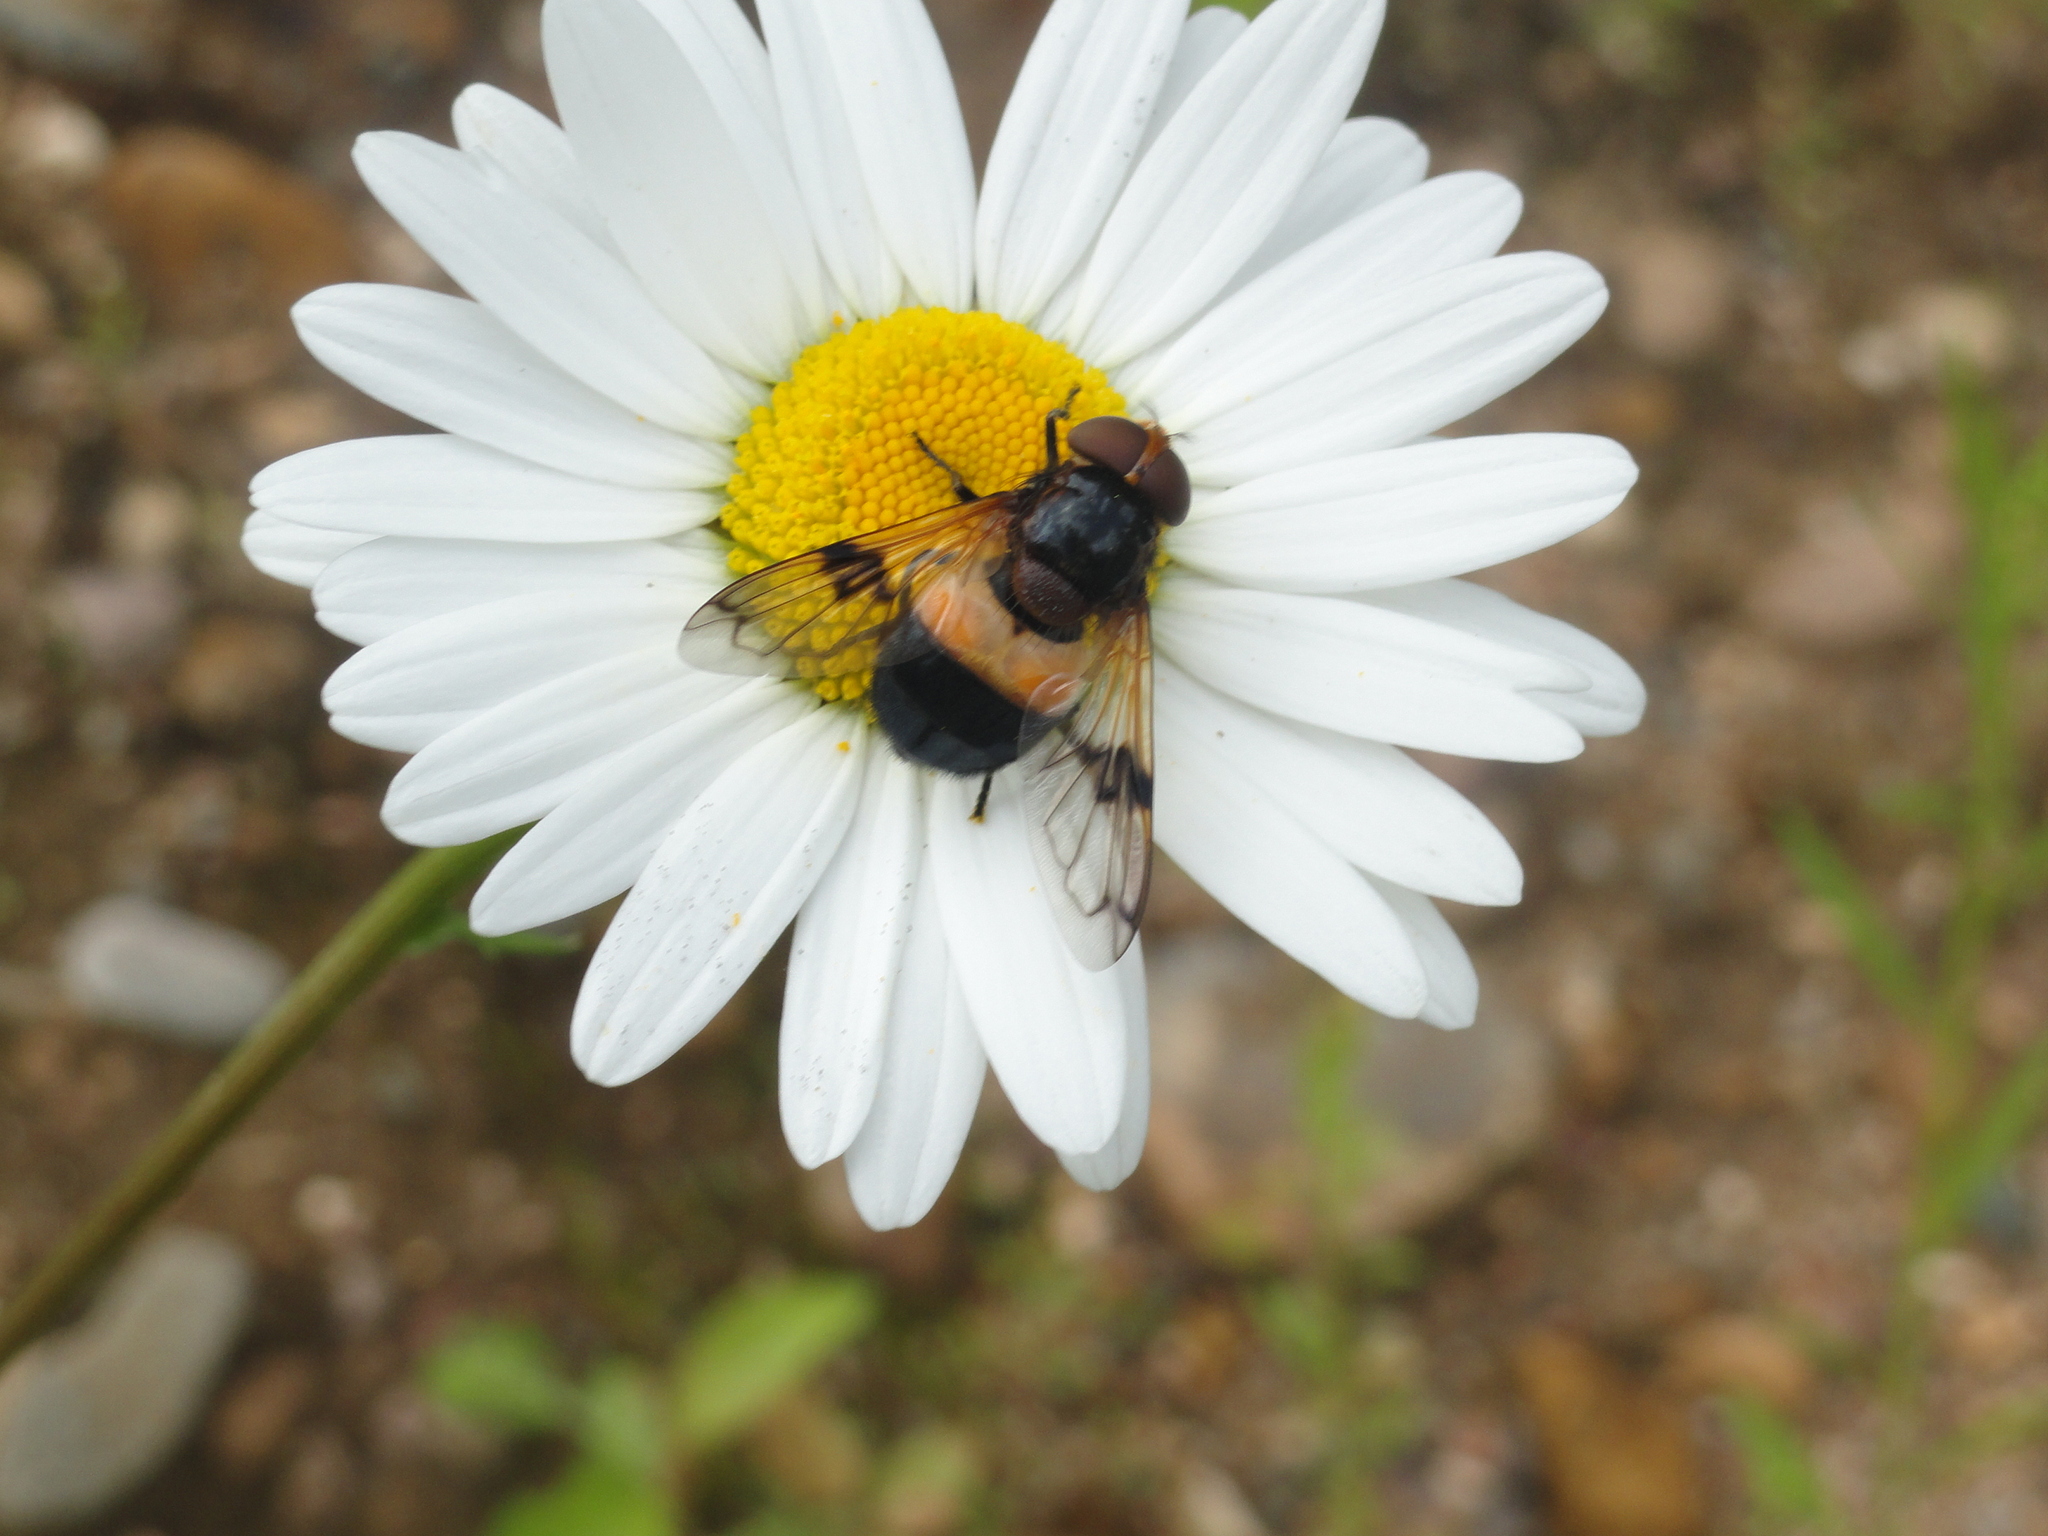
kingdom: Animalia
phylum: Arthropoda
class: Insecta
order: Diptera
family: Syrphidae
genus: Volucella
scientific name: Volucella pellucens
